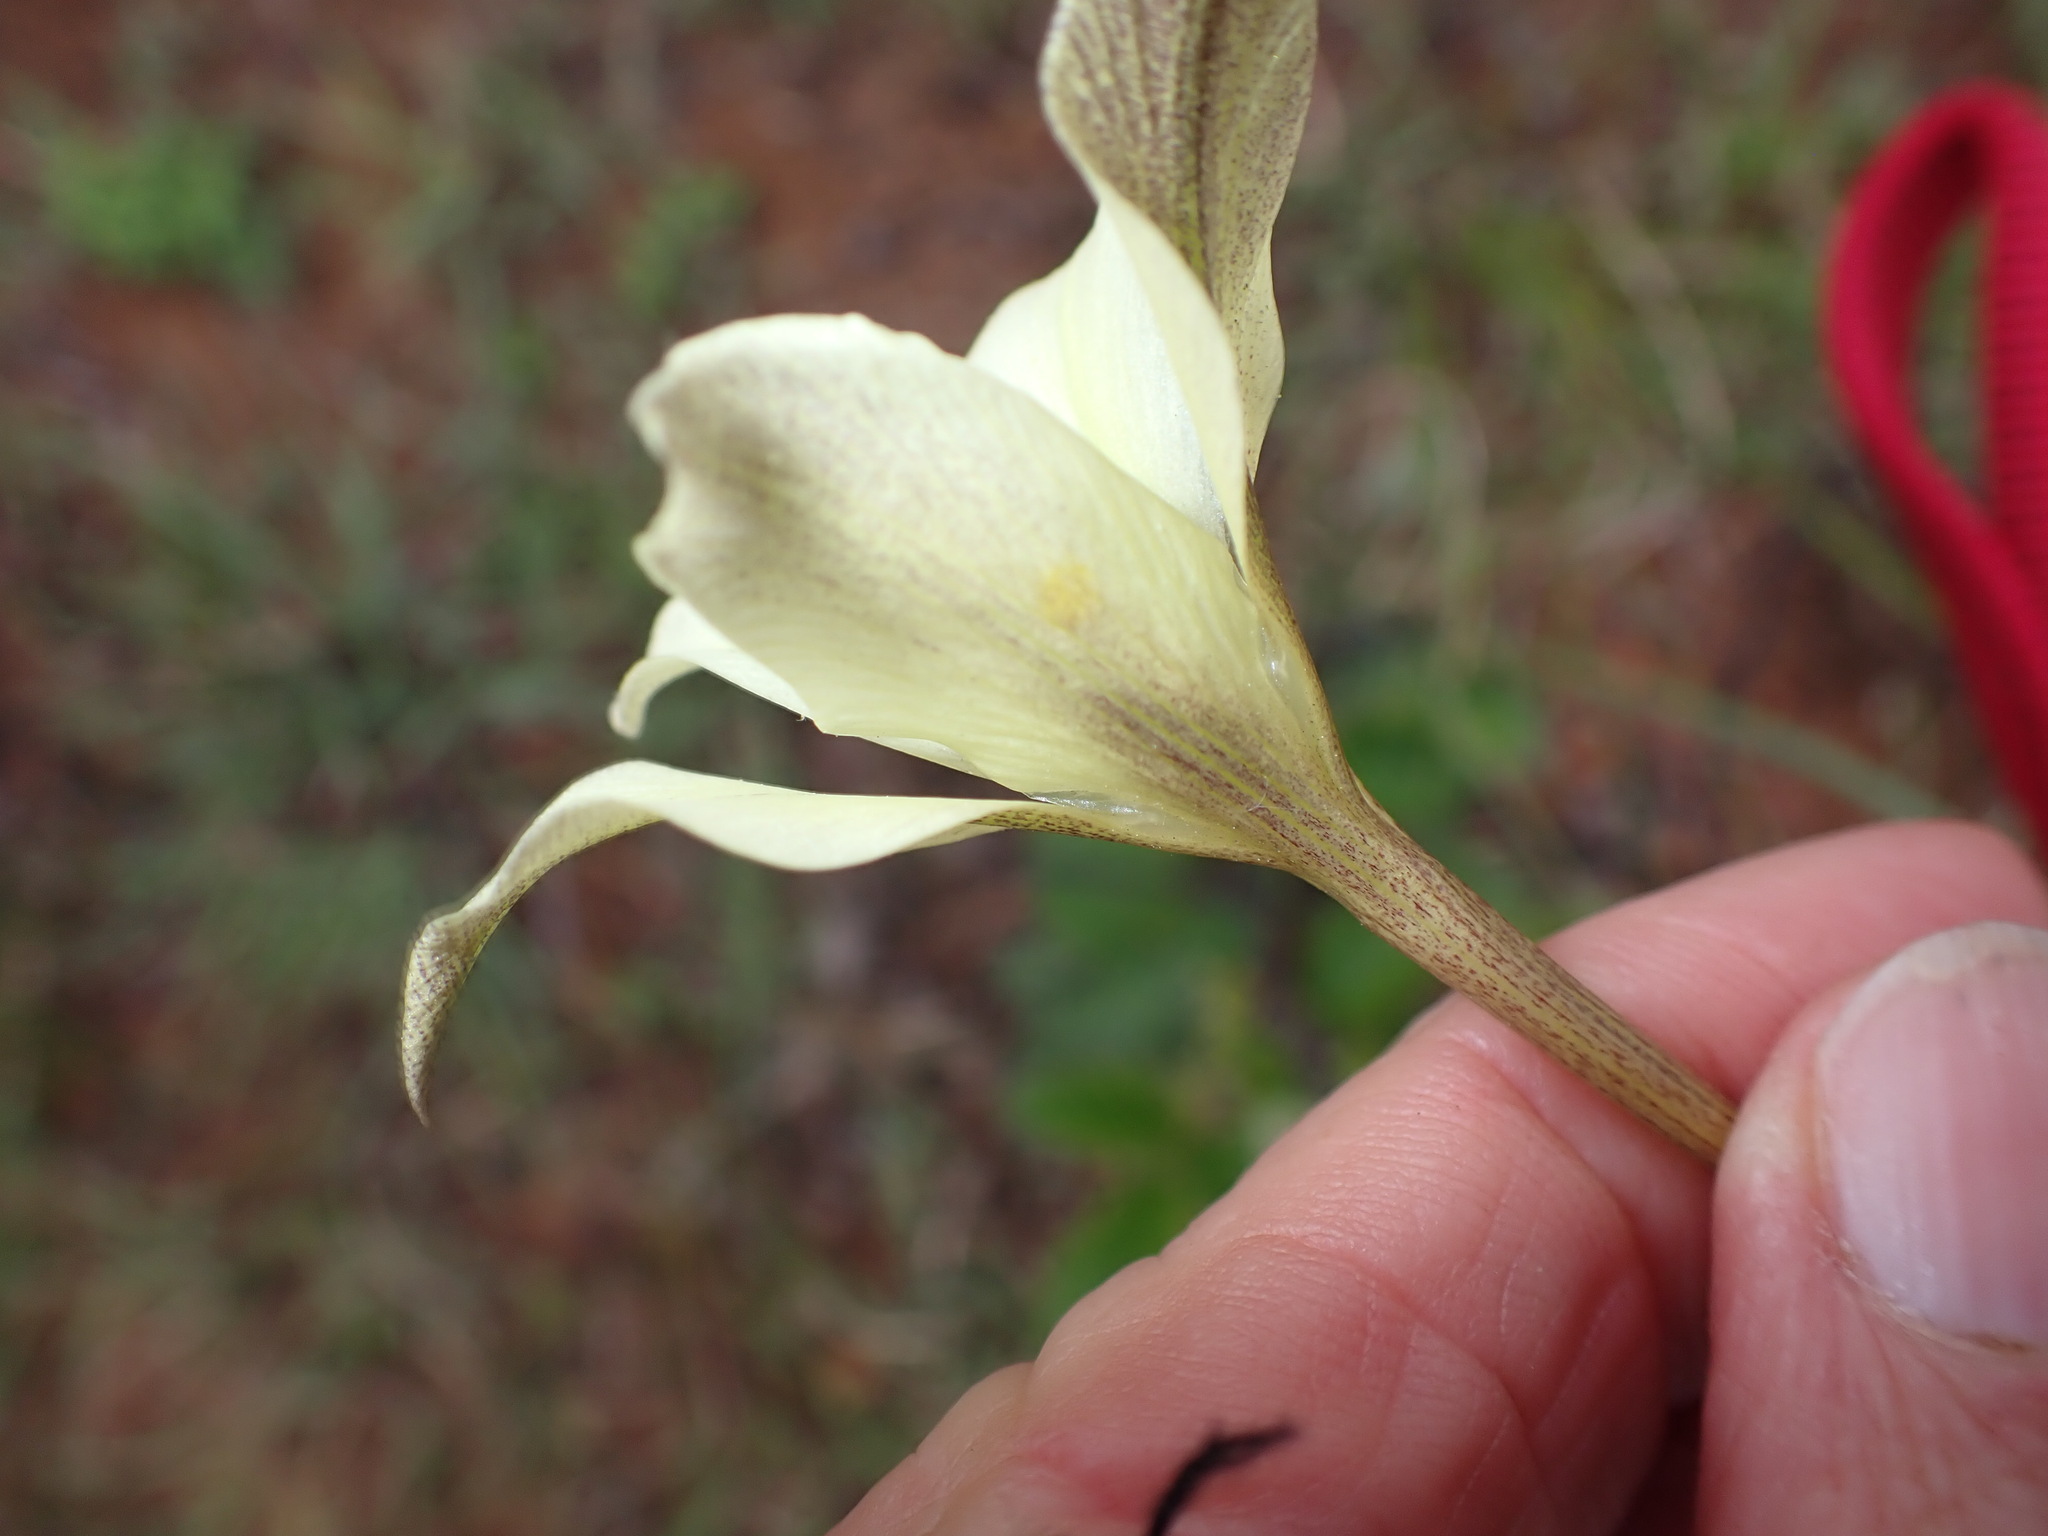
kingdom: Plantae
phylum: Tracheophyta
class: Liliopsida
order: Asparagales
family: Iridaceae
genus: Gladiolus
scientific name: Gladiolus longicollis
